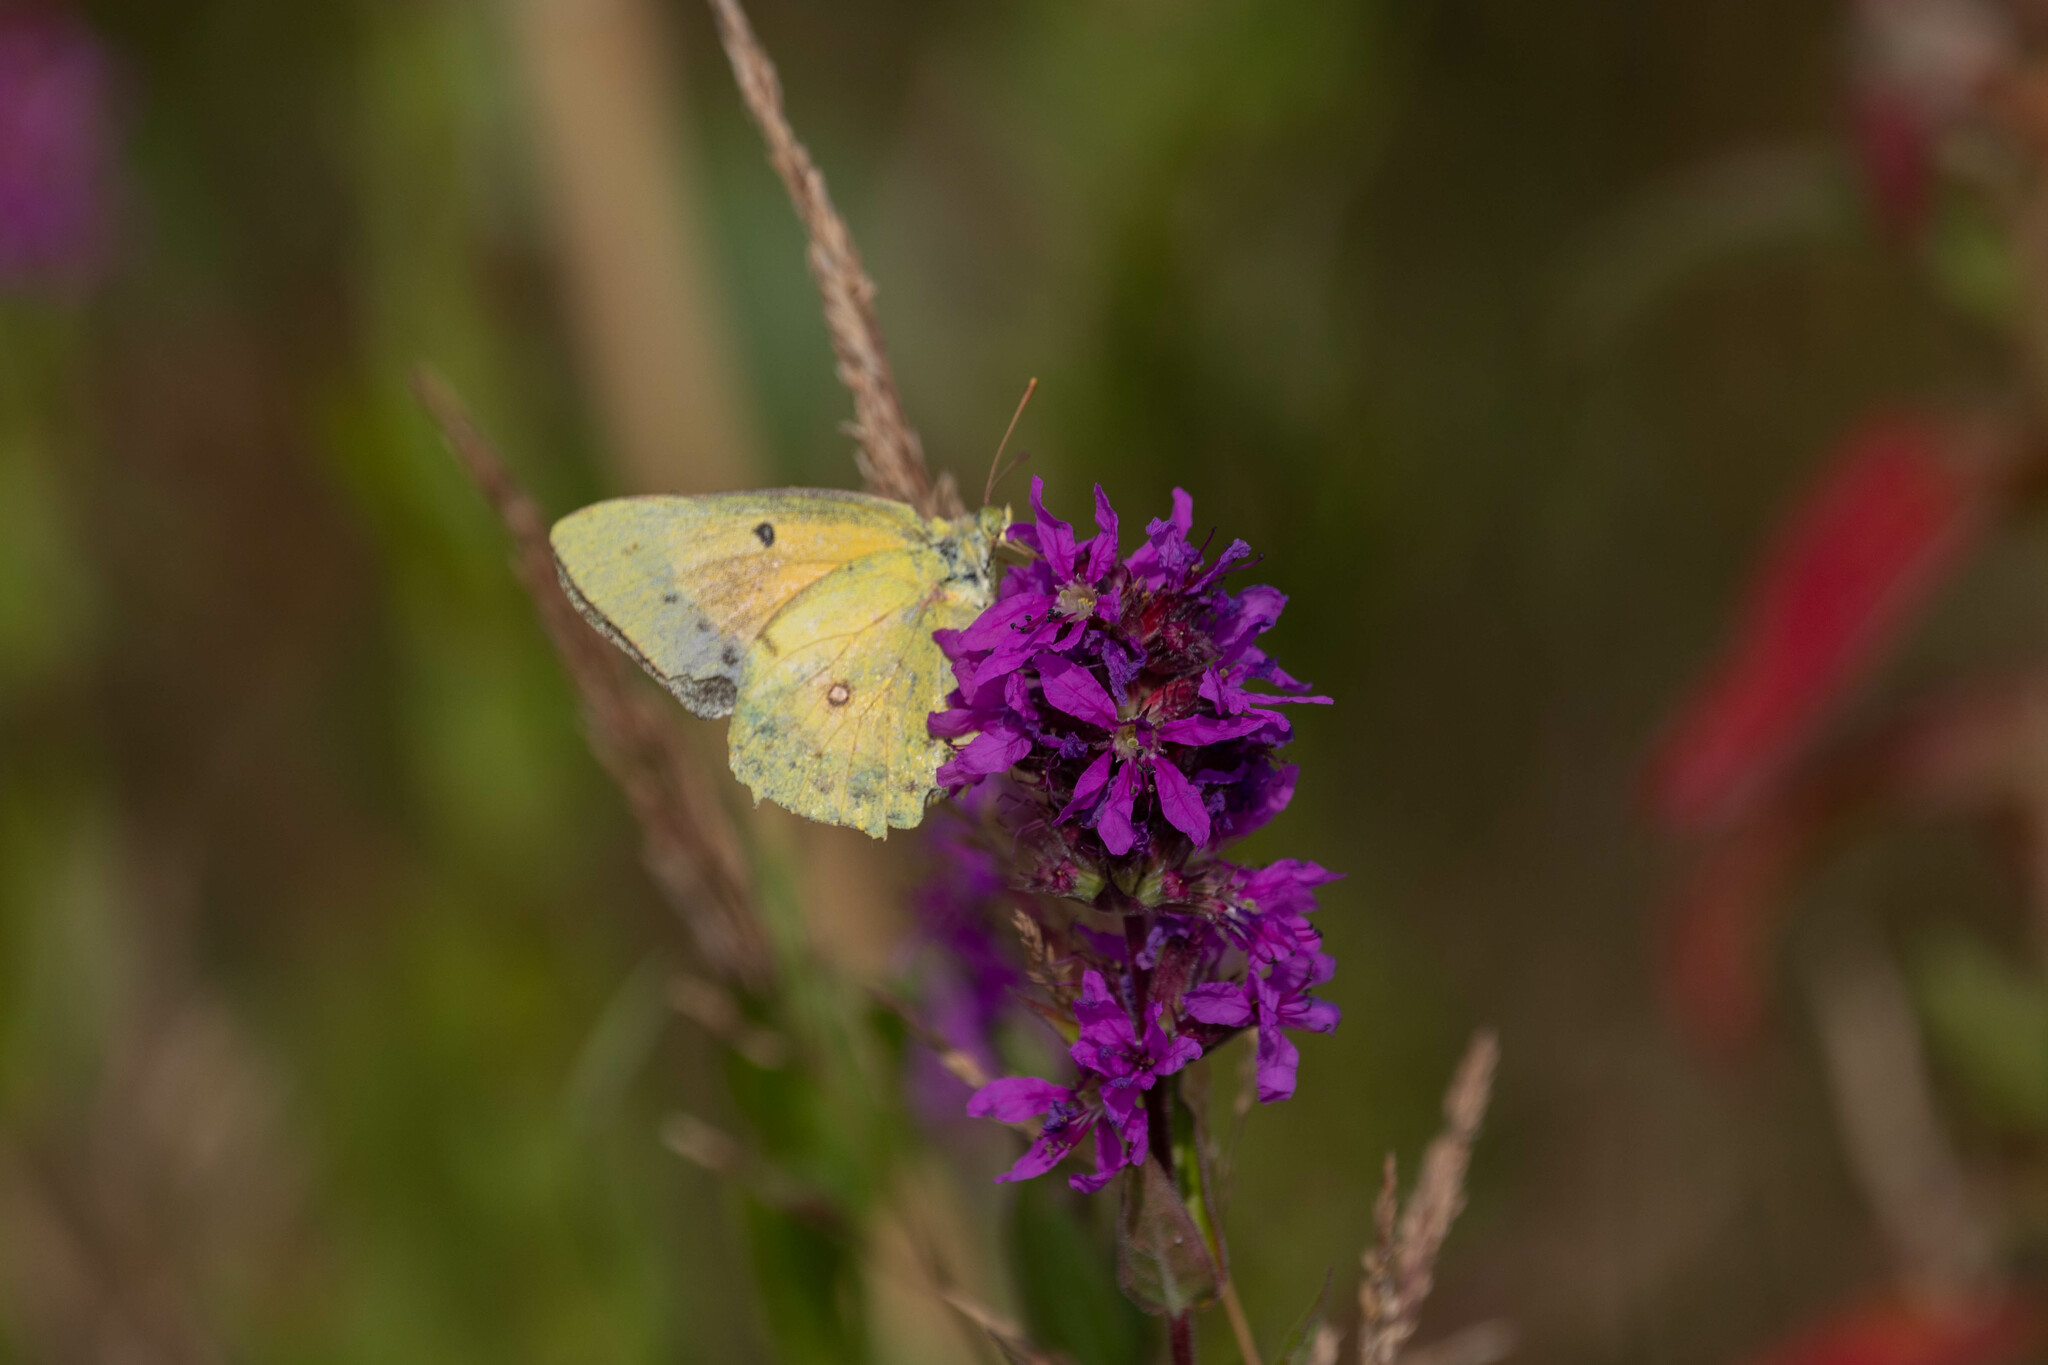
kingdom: Animalia
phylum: Arthropoda
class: Insecta
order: Lepidoptera
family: Pieridae
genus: Colias
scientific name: Colias eurytheme
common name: Alfalfa butterfly
